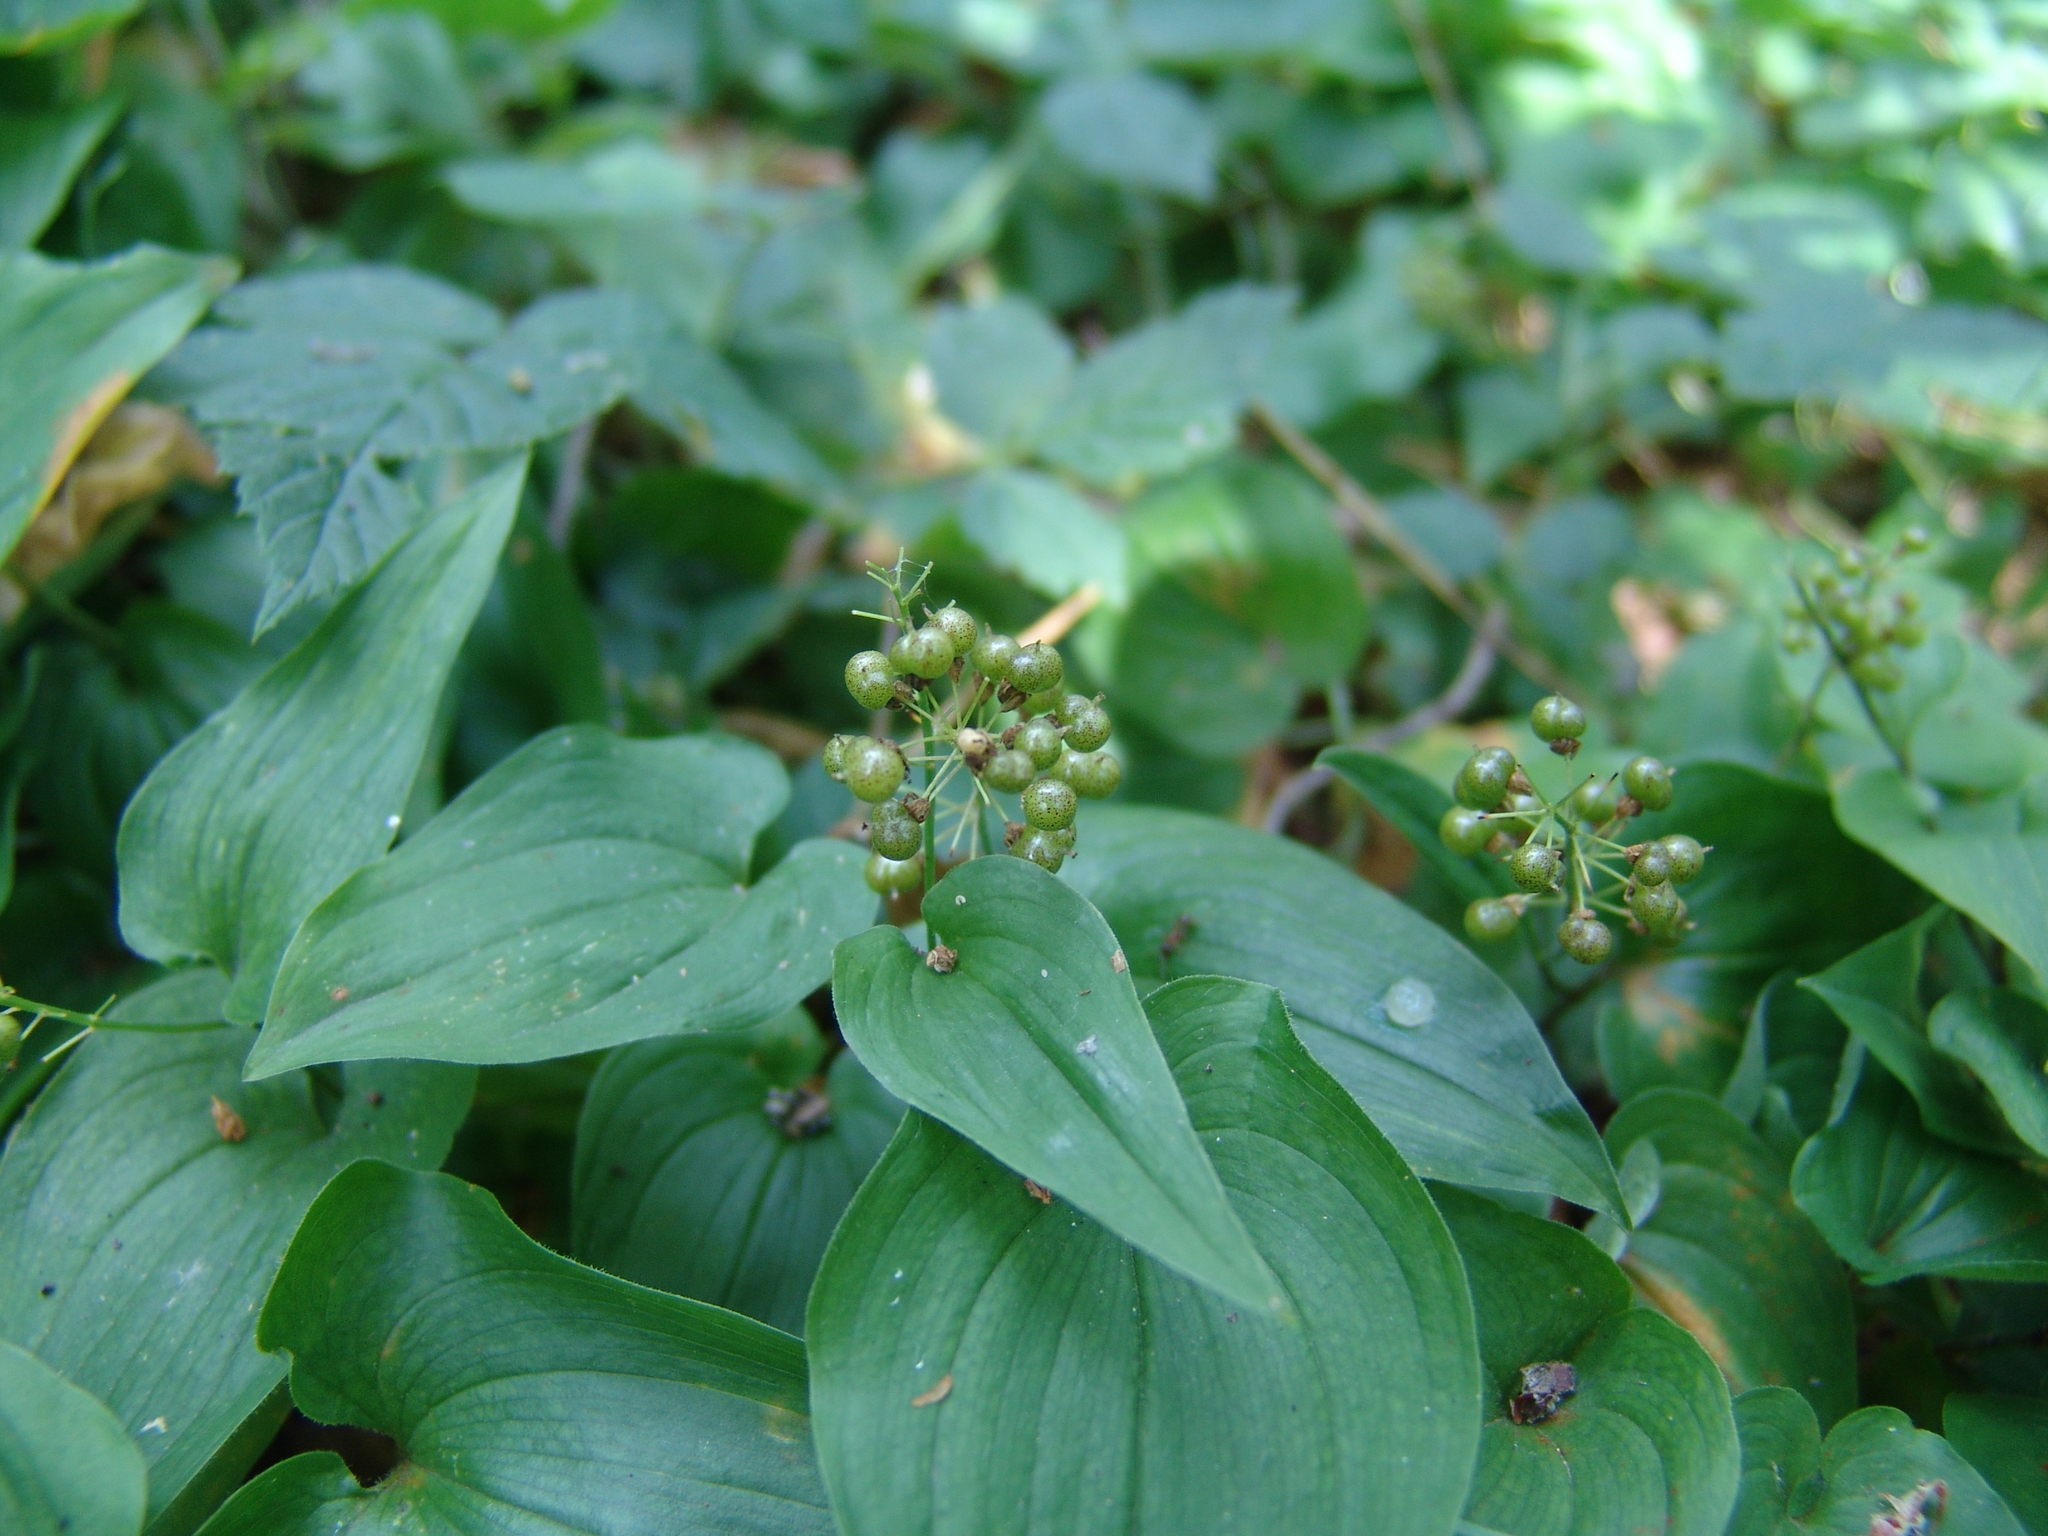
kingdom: Plantae
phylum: Tracheophyta
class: Liliopsida
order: Asparagales
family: Asparagaceae
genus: Maianthemum
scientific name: Maianthemum bifolium
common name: May lily
